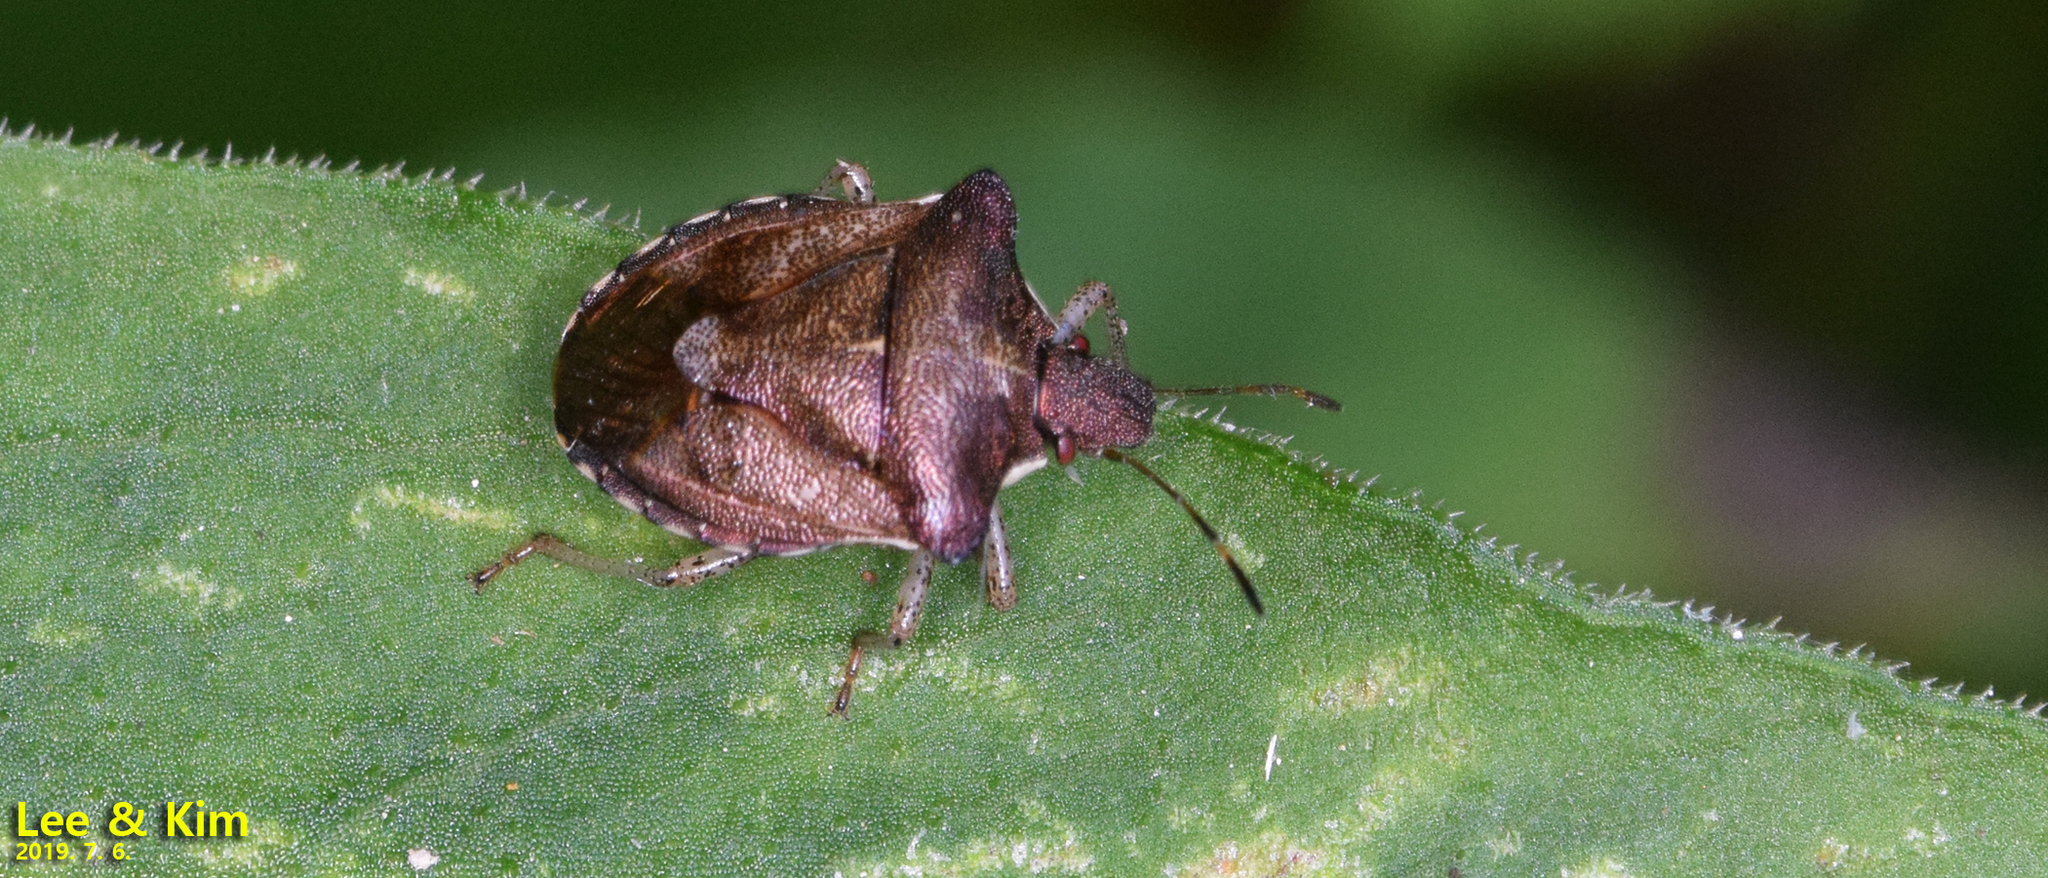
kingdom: Animalia
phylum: Arthropoda
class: Insecta
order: Hemiptera
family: Pentatomidae
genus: Carbula
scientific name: Carbula putoni
